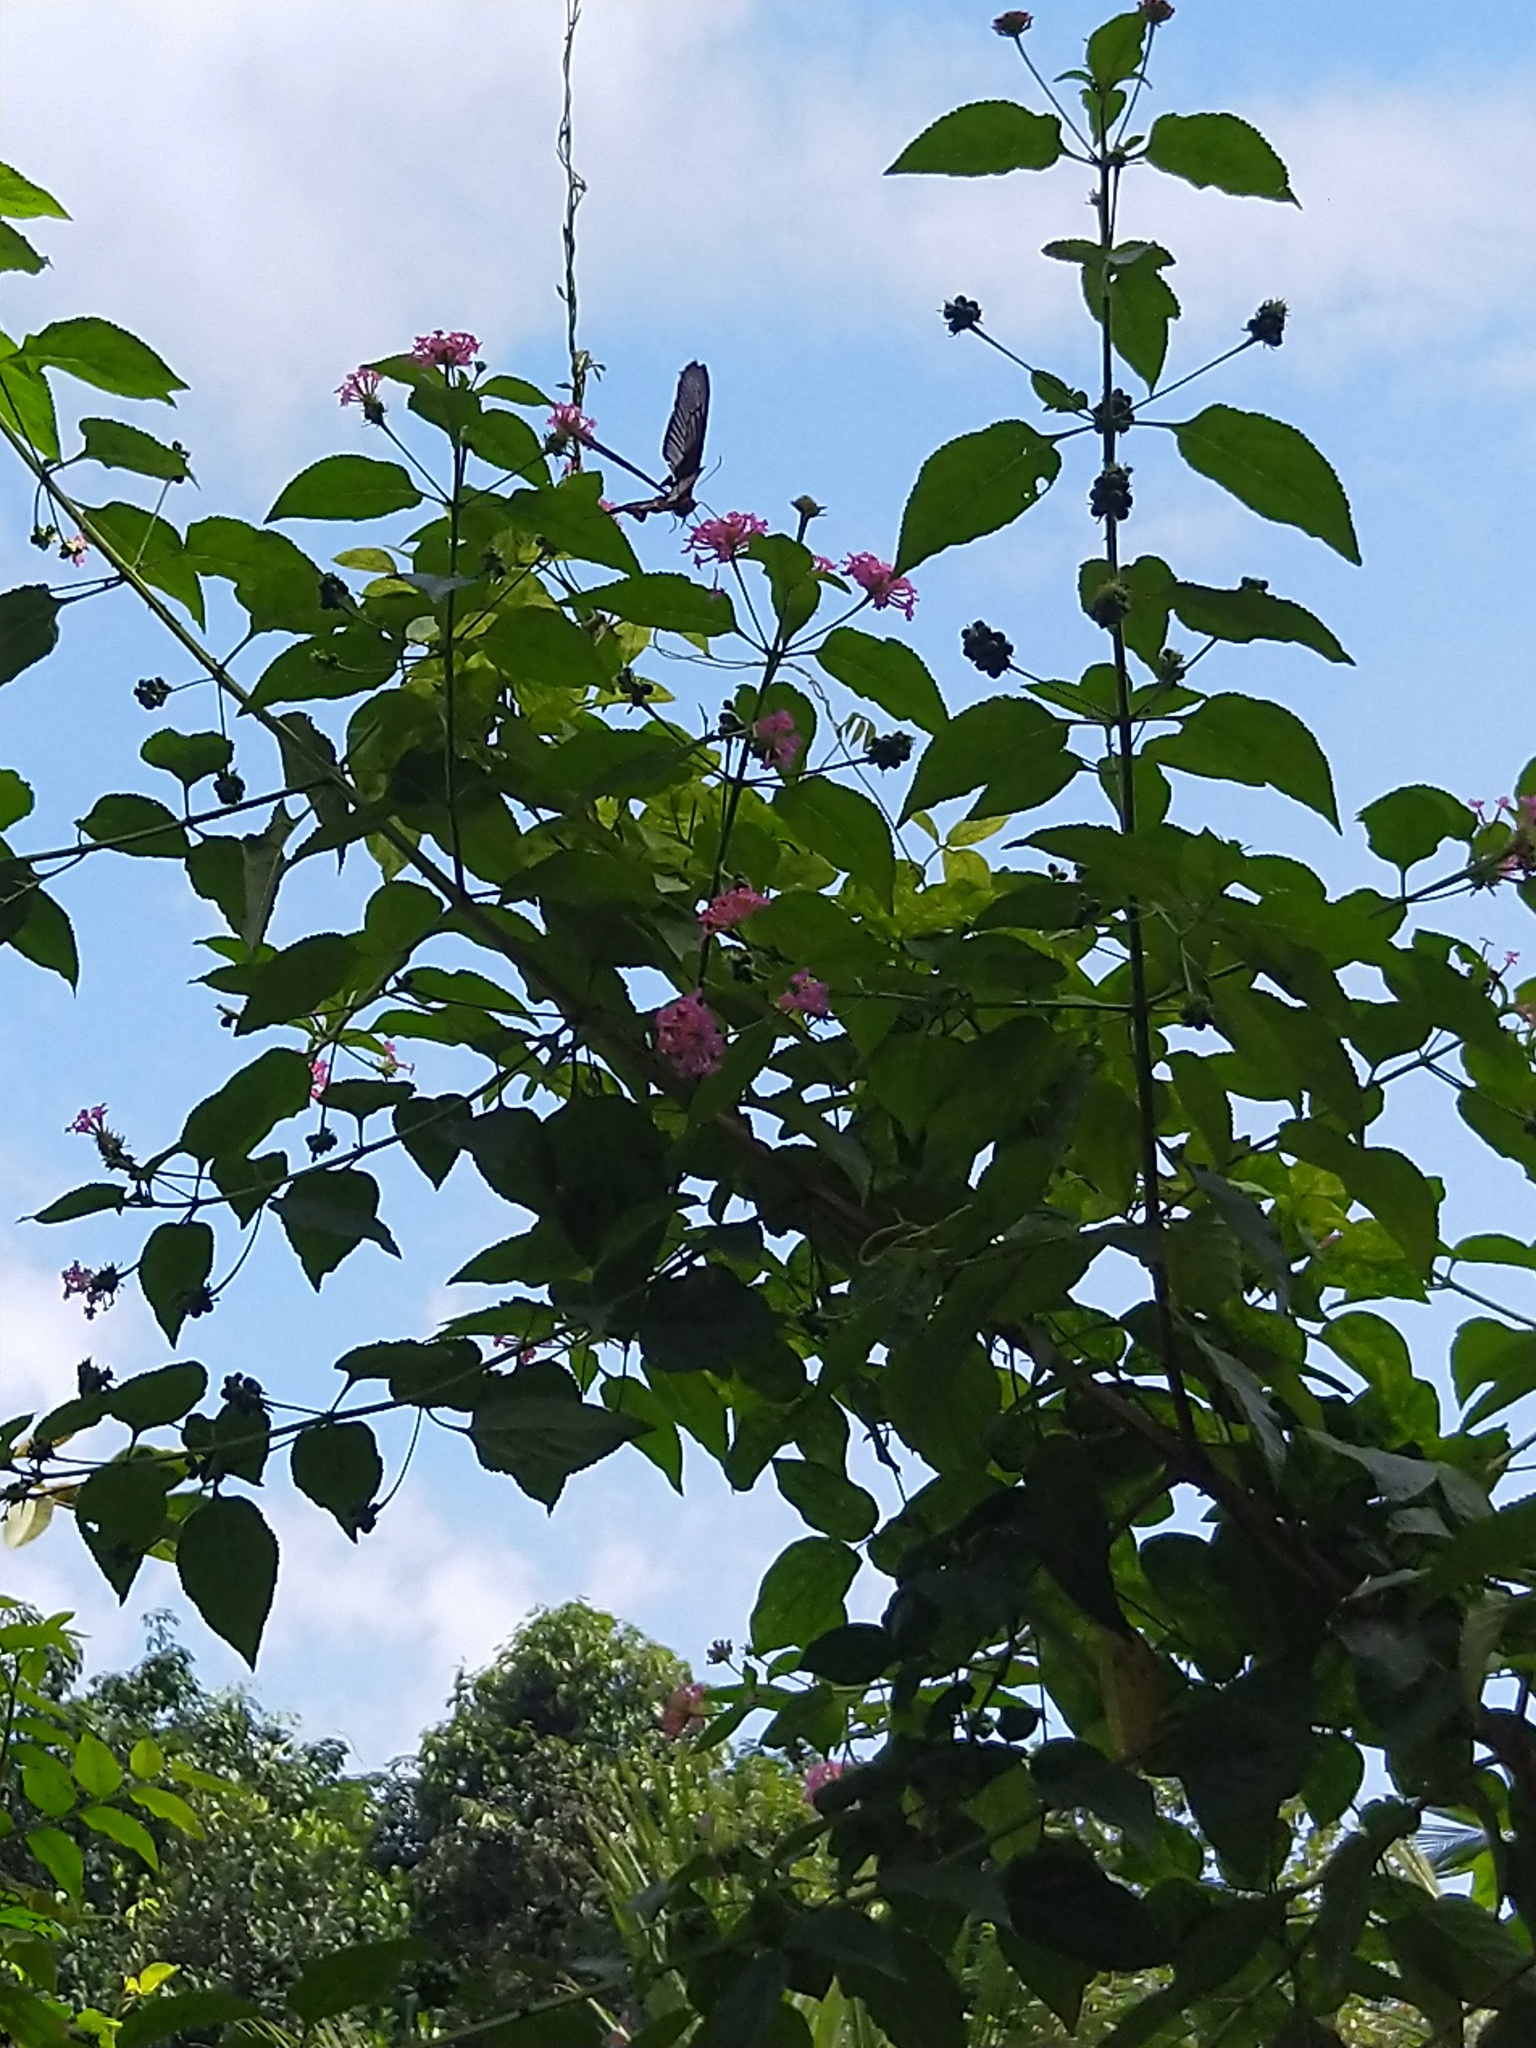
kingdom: Animalia
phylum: Arthropoda
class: Insecta
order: Lepidoptera
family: Papilionidae
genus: Pachliopta
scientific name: Pachliopta pandiyana
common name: Malabar rose
